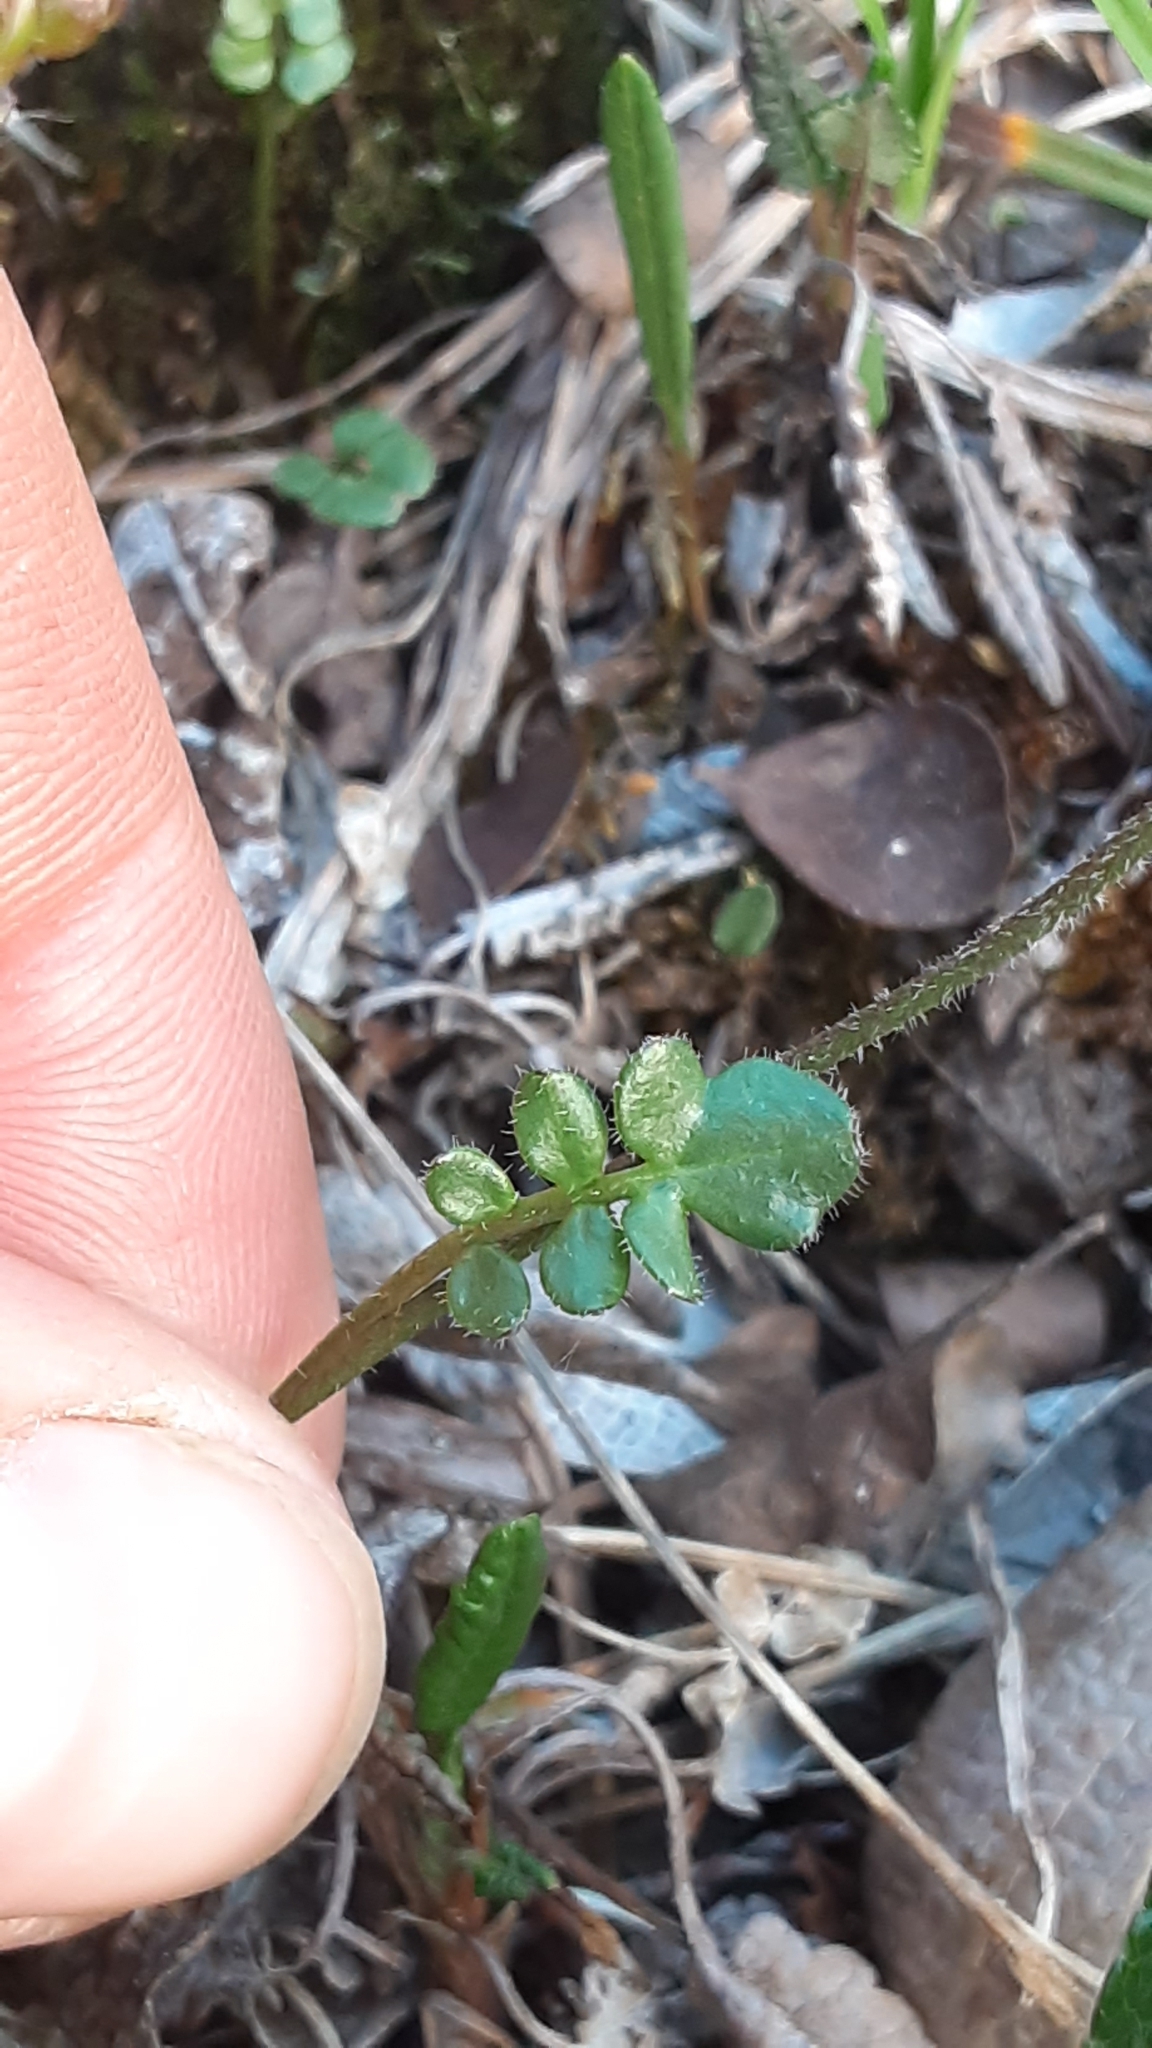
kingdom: Plantae
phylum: Tracheophyta
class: Magnoliopsida
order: Brassicales
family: Brassicaceae
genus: Cardamine
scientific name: Cardamine purpurea
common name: Purple bittercress
